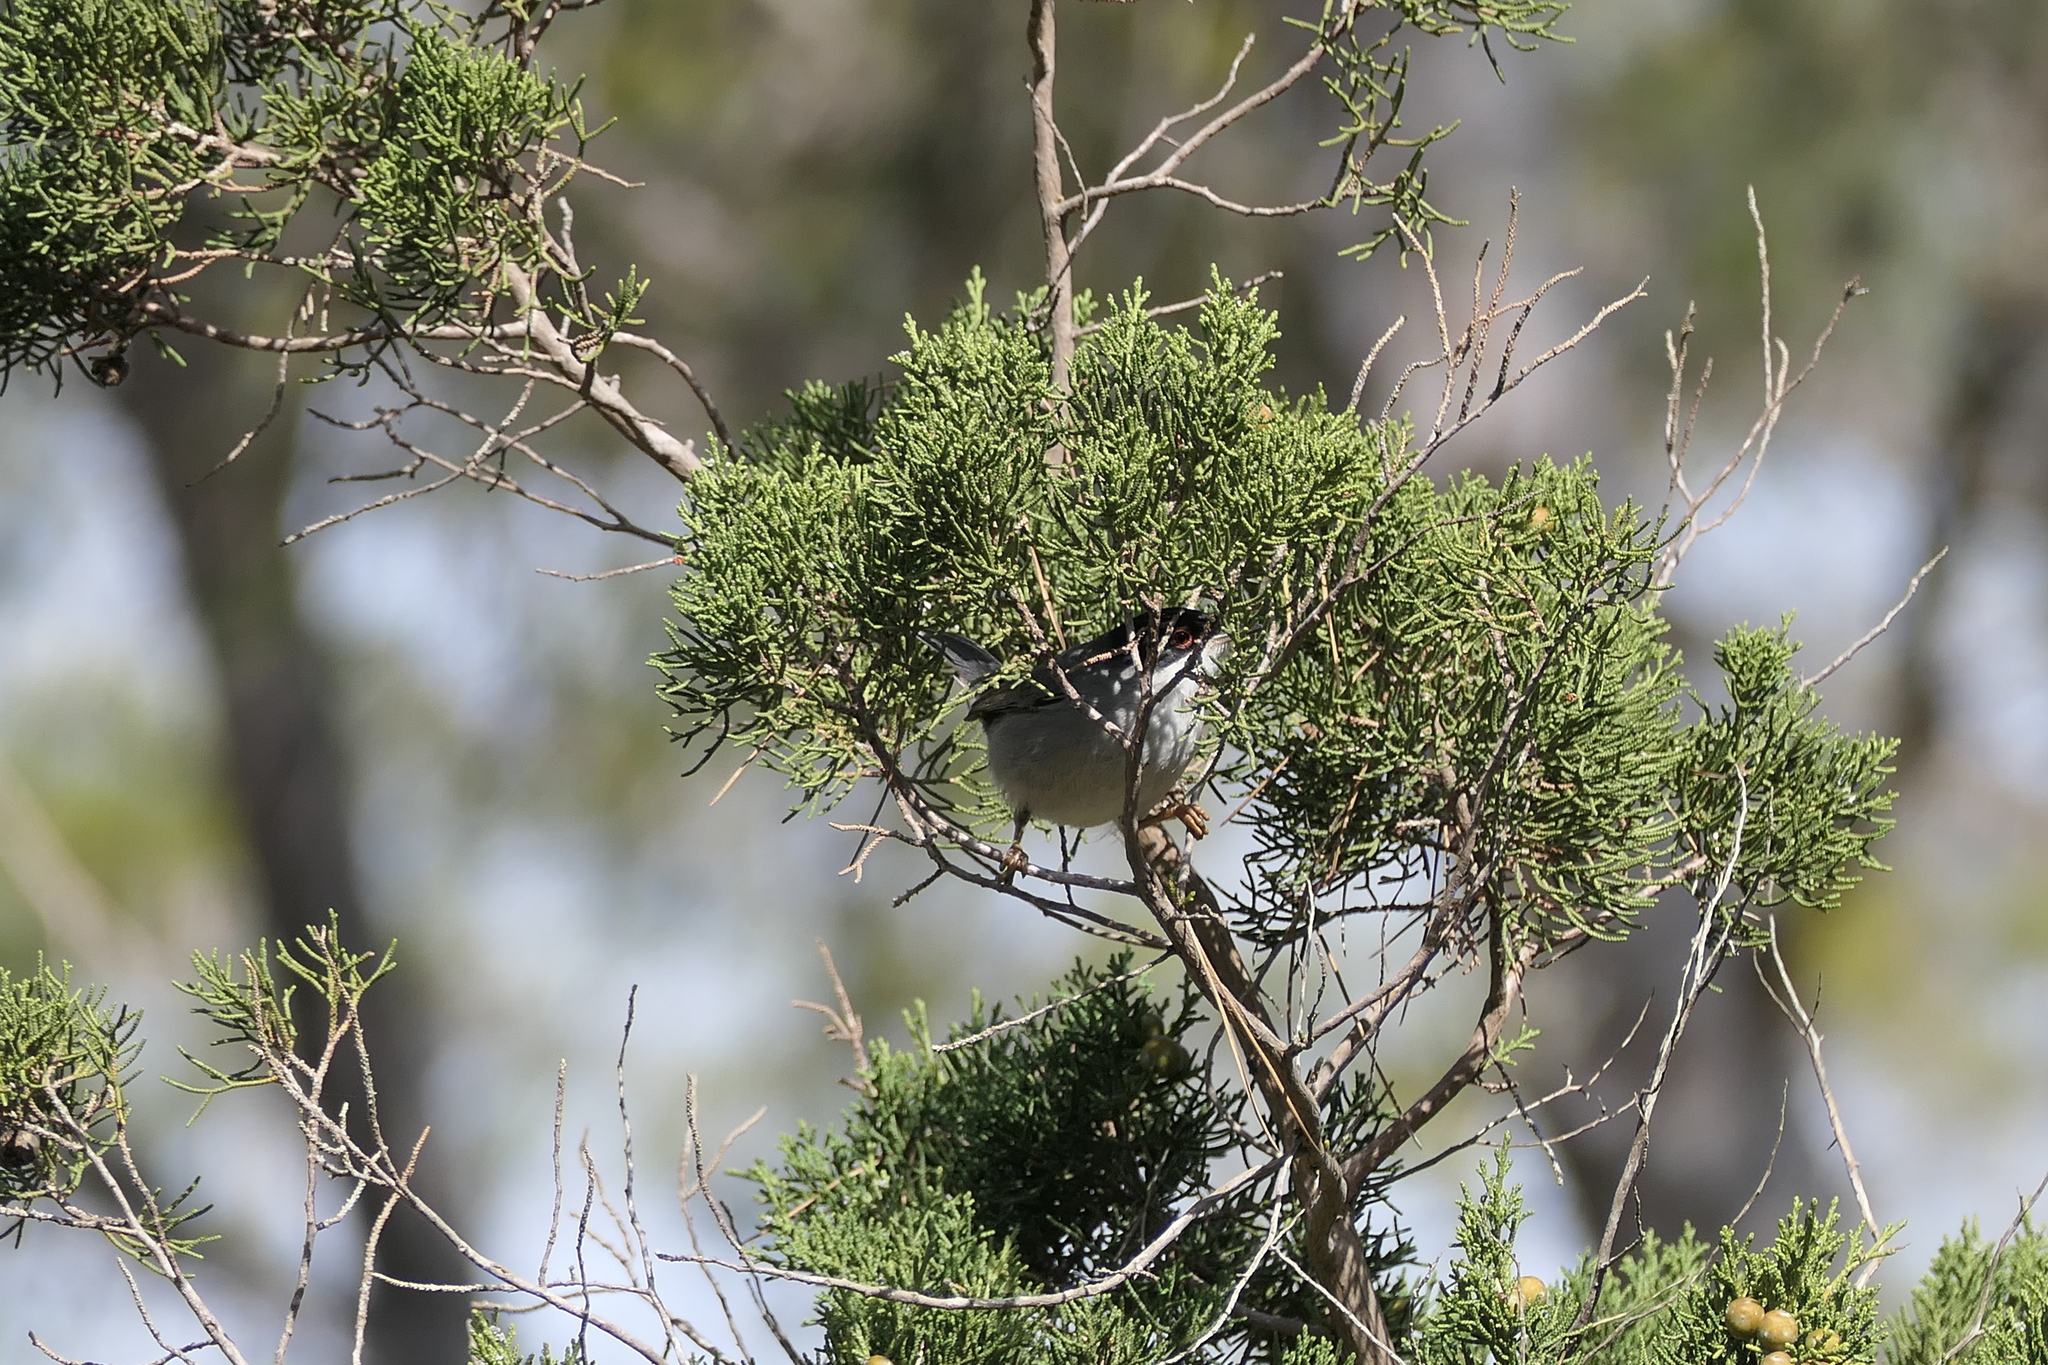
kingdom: Animalia
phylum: Chordata
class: Aves
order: Passeriformes
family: Sylviidae
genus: Curruca
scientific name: Curruca melanocephala
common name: Sardinian warbler
